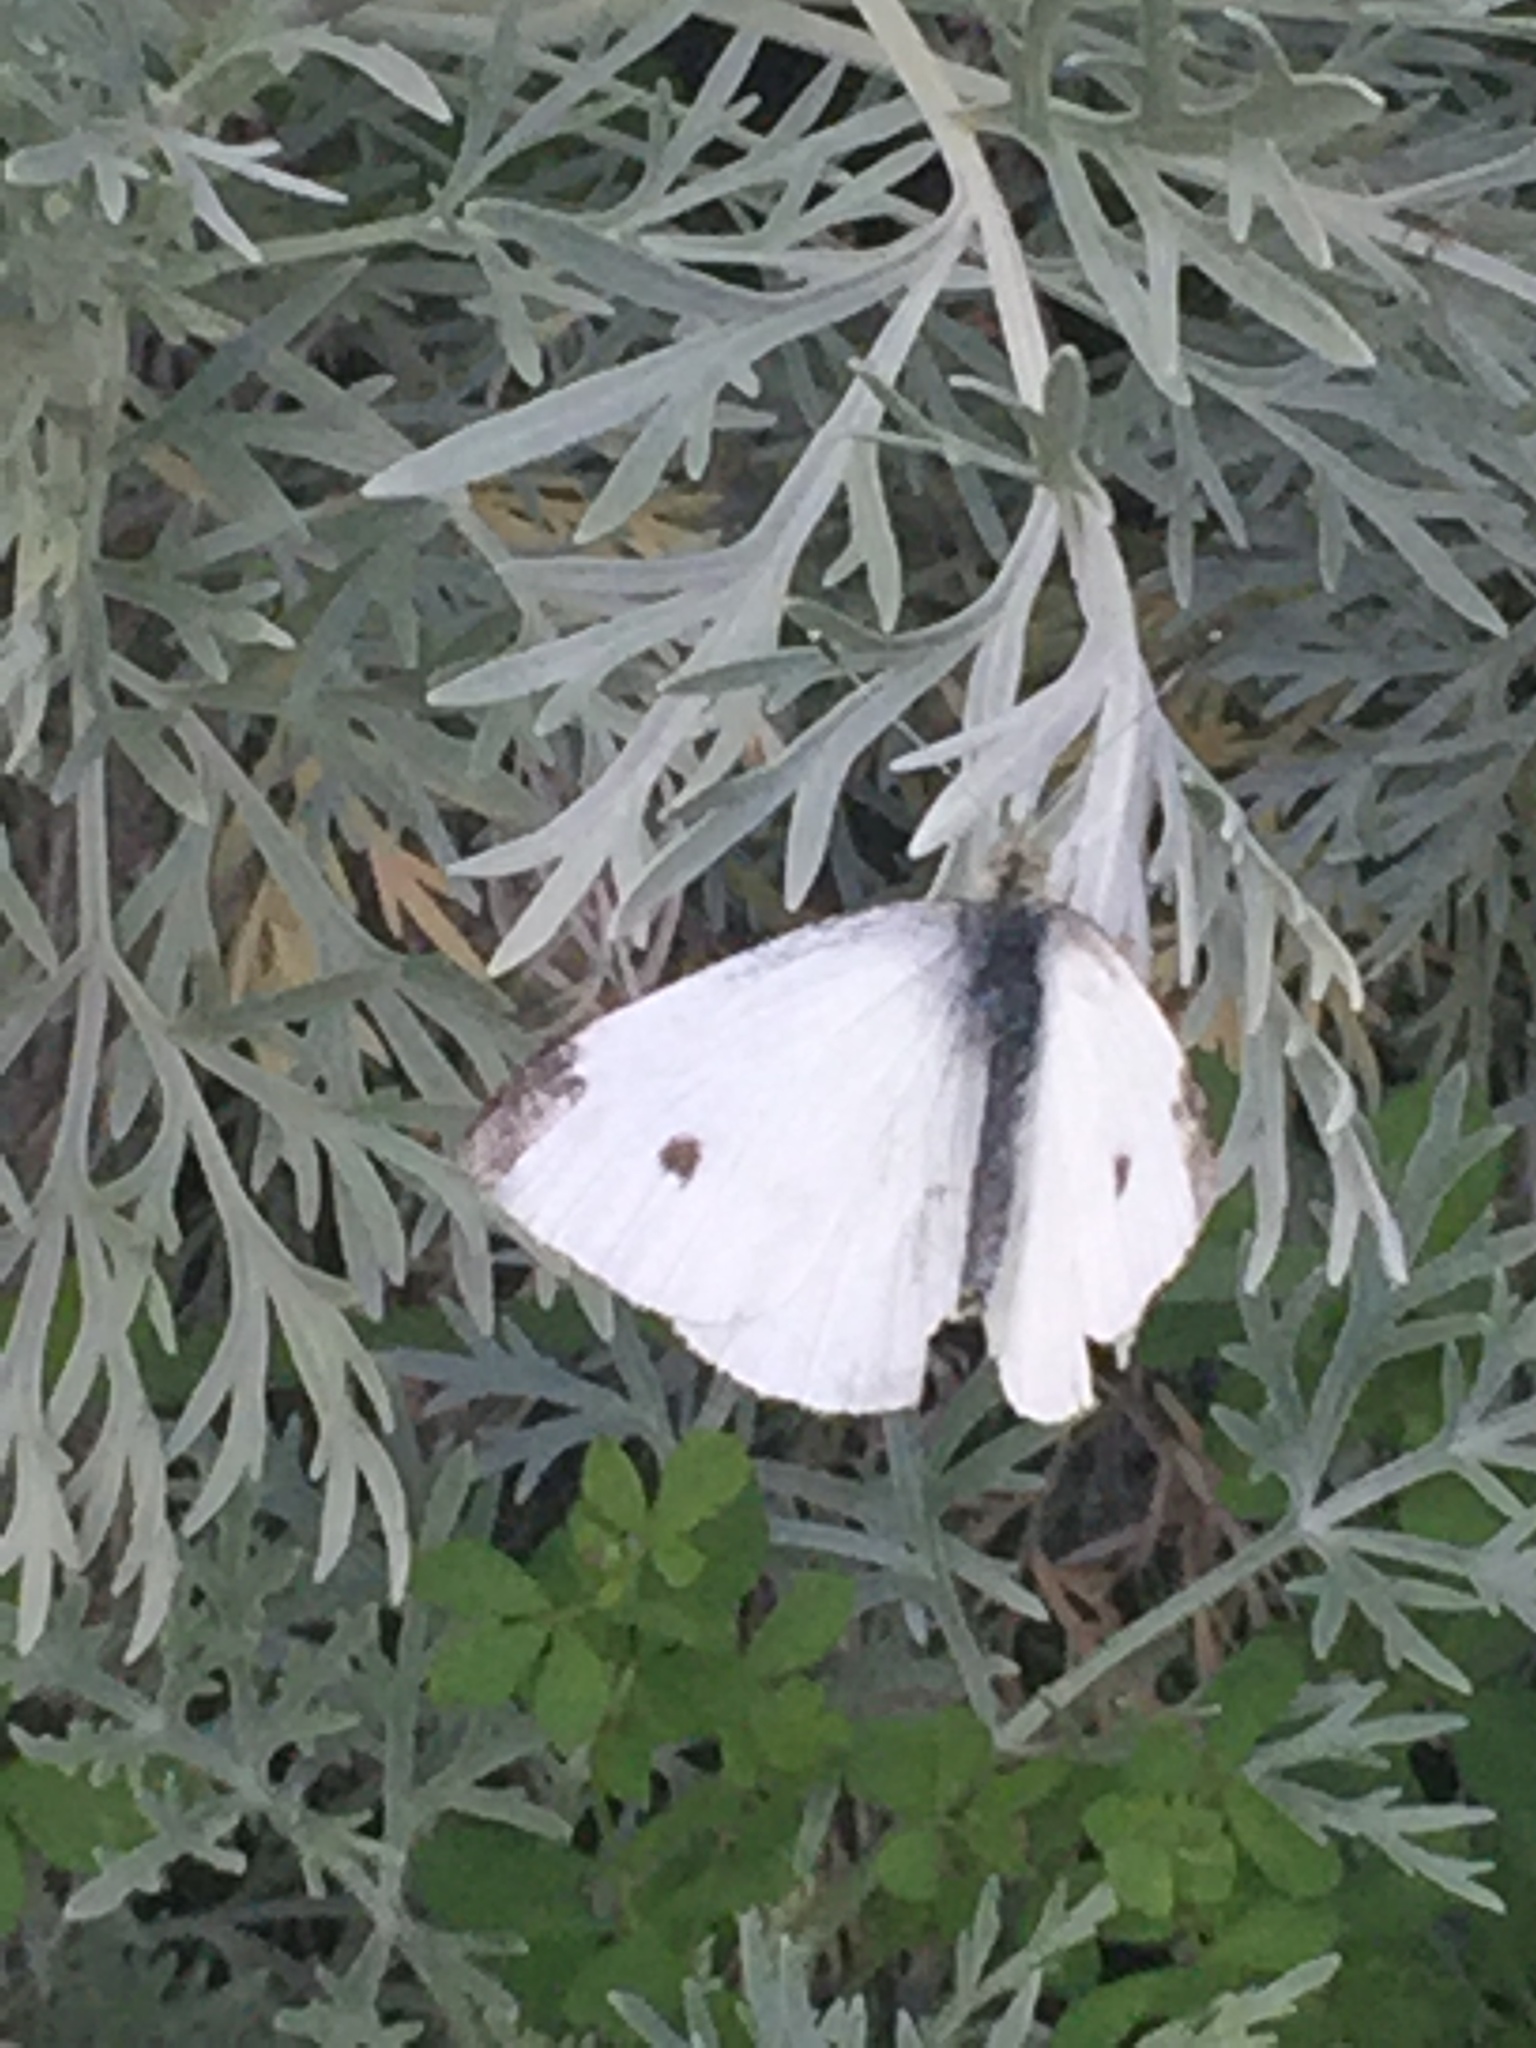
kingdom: Animalia
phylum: Arthropoda
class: Insecta
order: Lepidoptera
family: Pieridae
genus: Pieris
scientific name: Pieris rapae
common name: Small white
